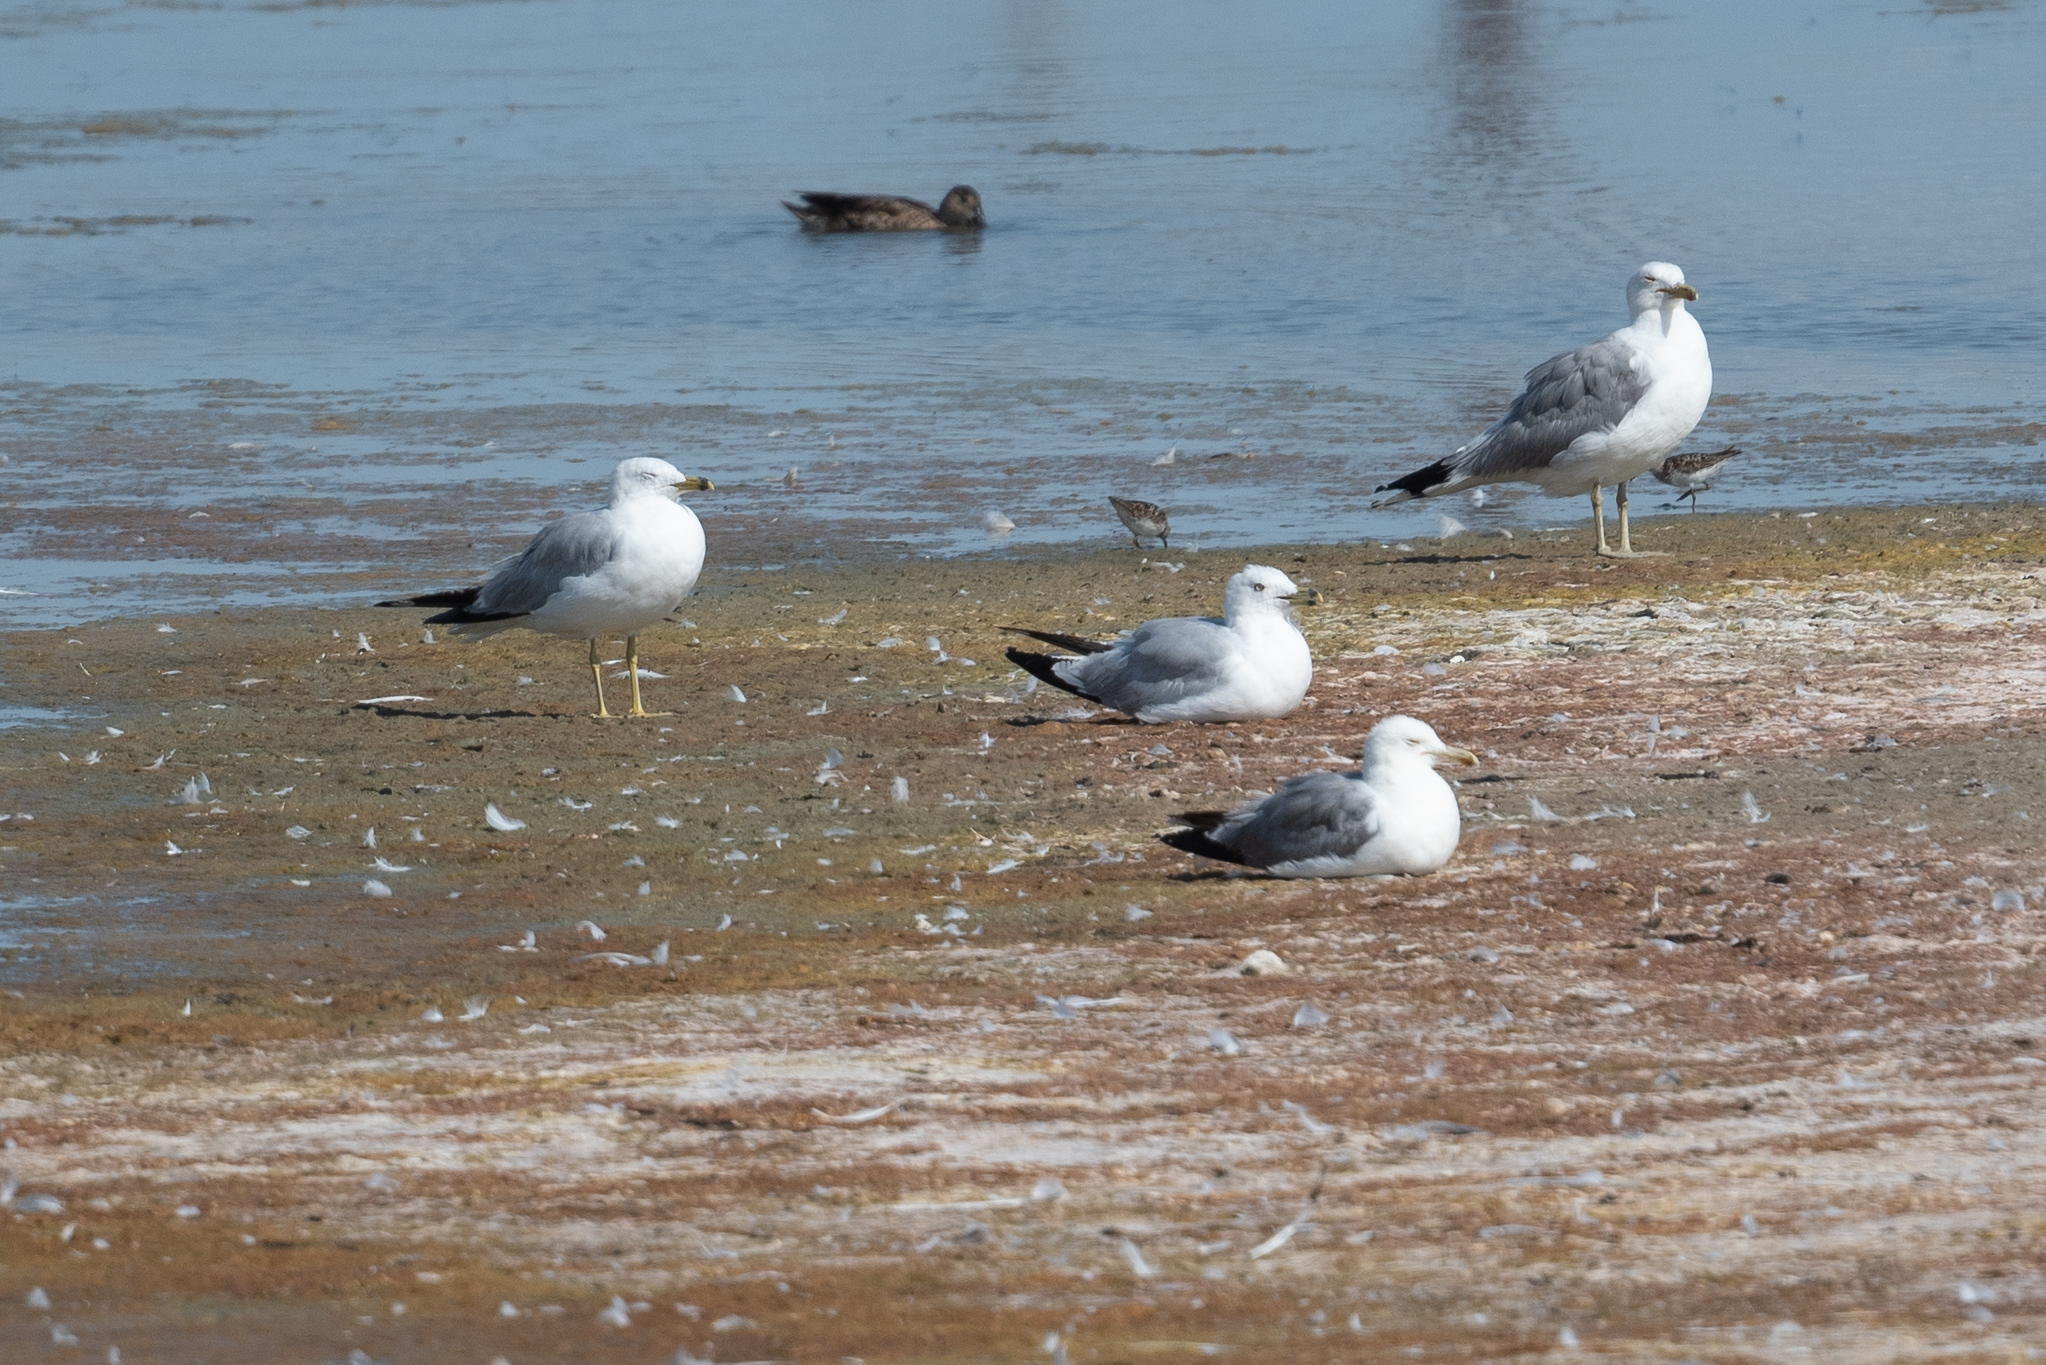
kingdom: Animalia
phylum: Chordata
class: Aves
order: Charadriiformes
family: Laridae
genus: Larus
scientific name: Larus californicus
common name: California gull
